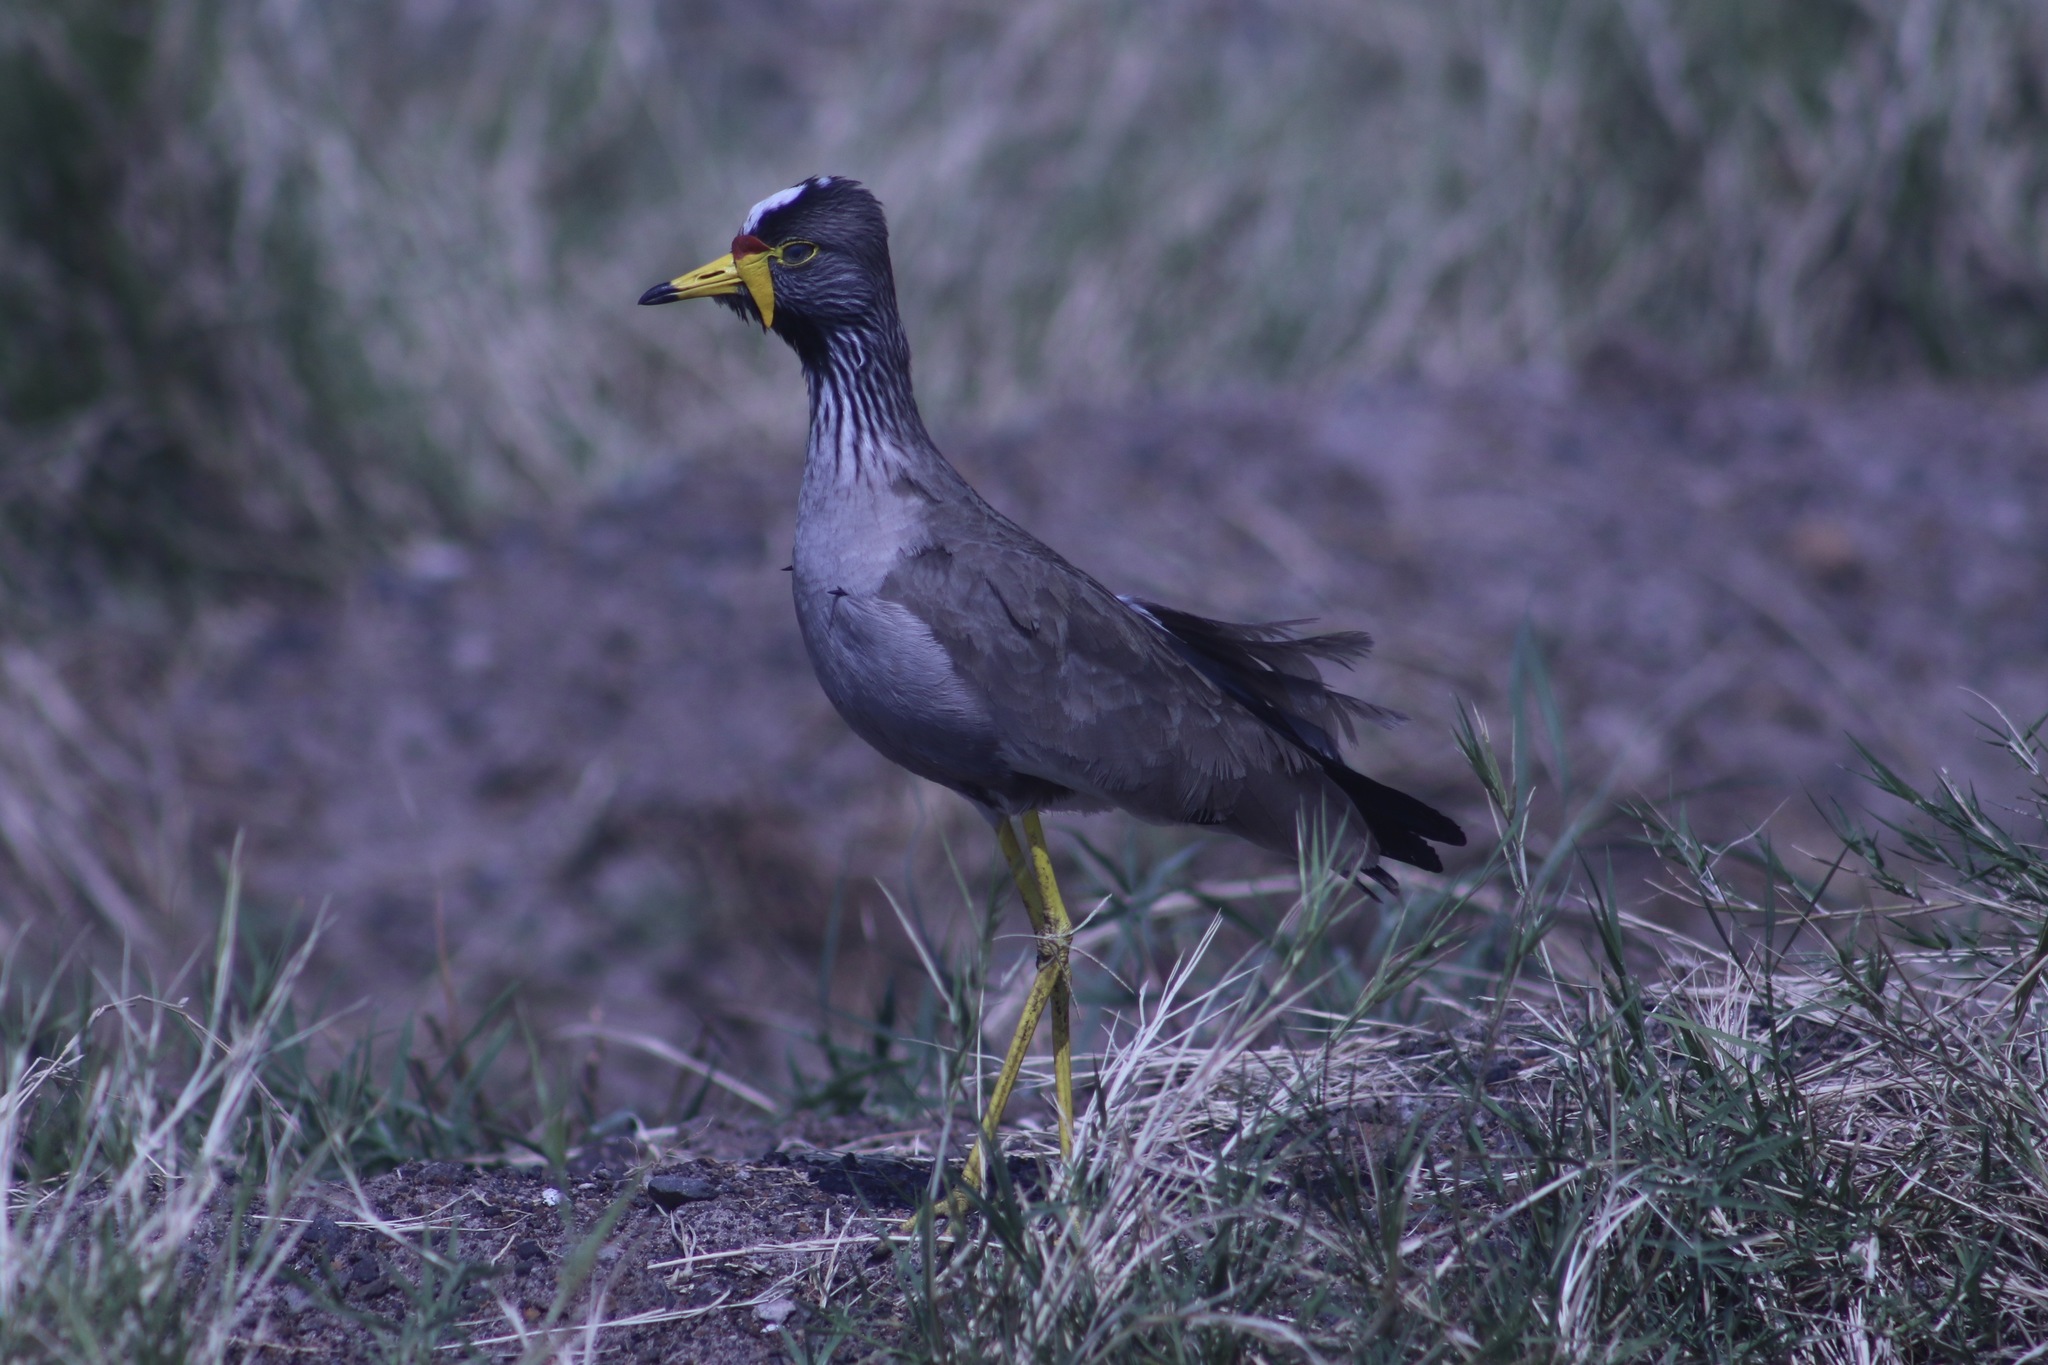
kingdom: Animalia
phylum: Chordata
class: Aves
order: Charadriiformes
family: Charadriidae
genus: Vanellus
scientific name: Vanellus senegallus
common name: African wattled lapwing
